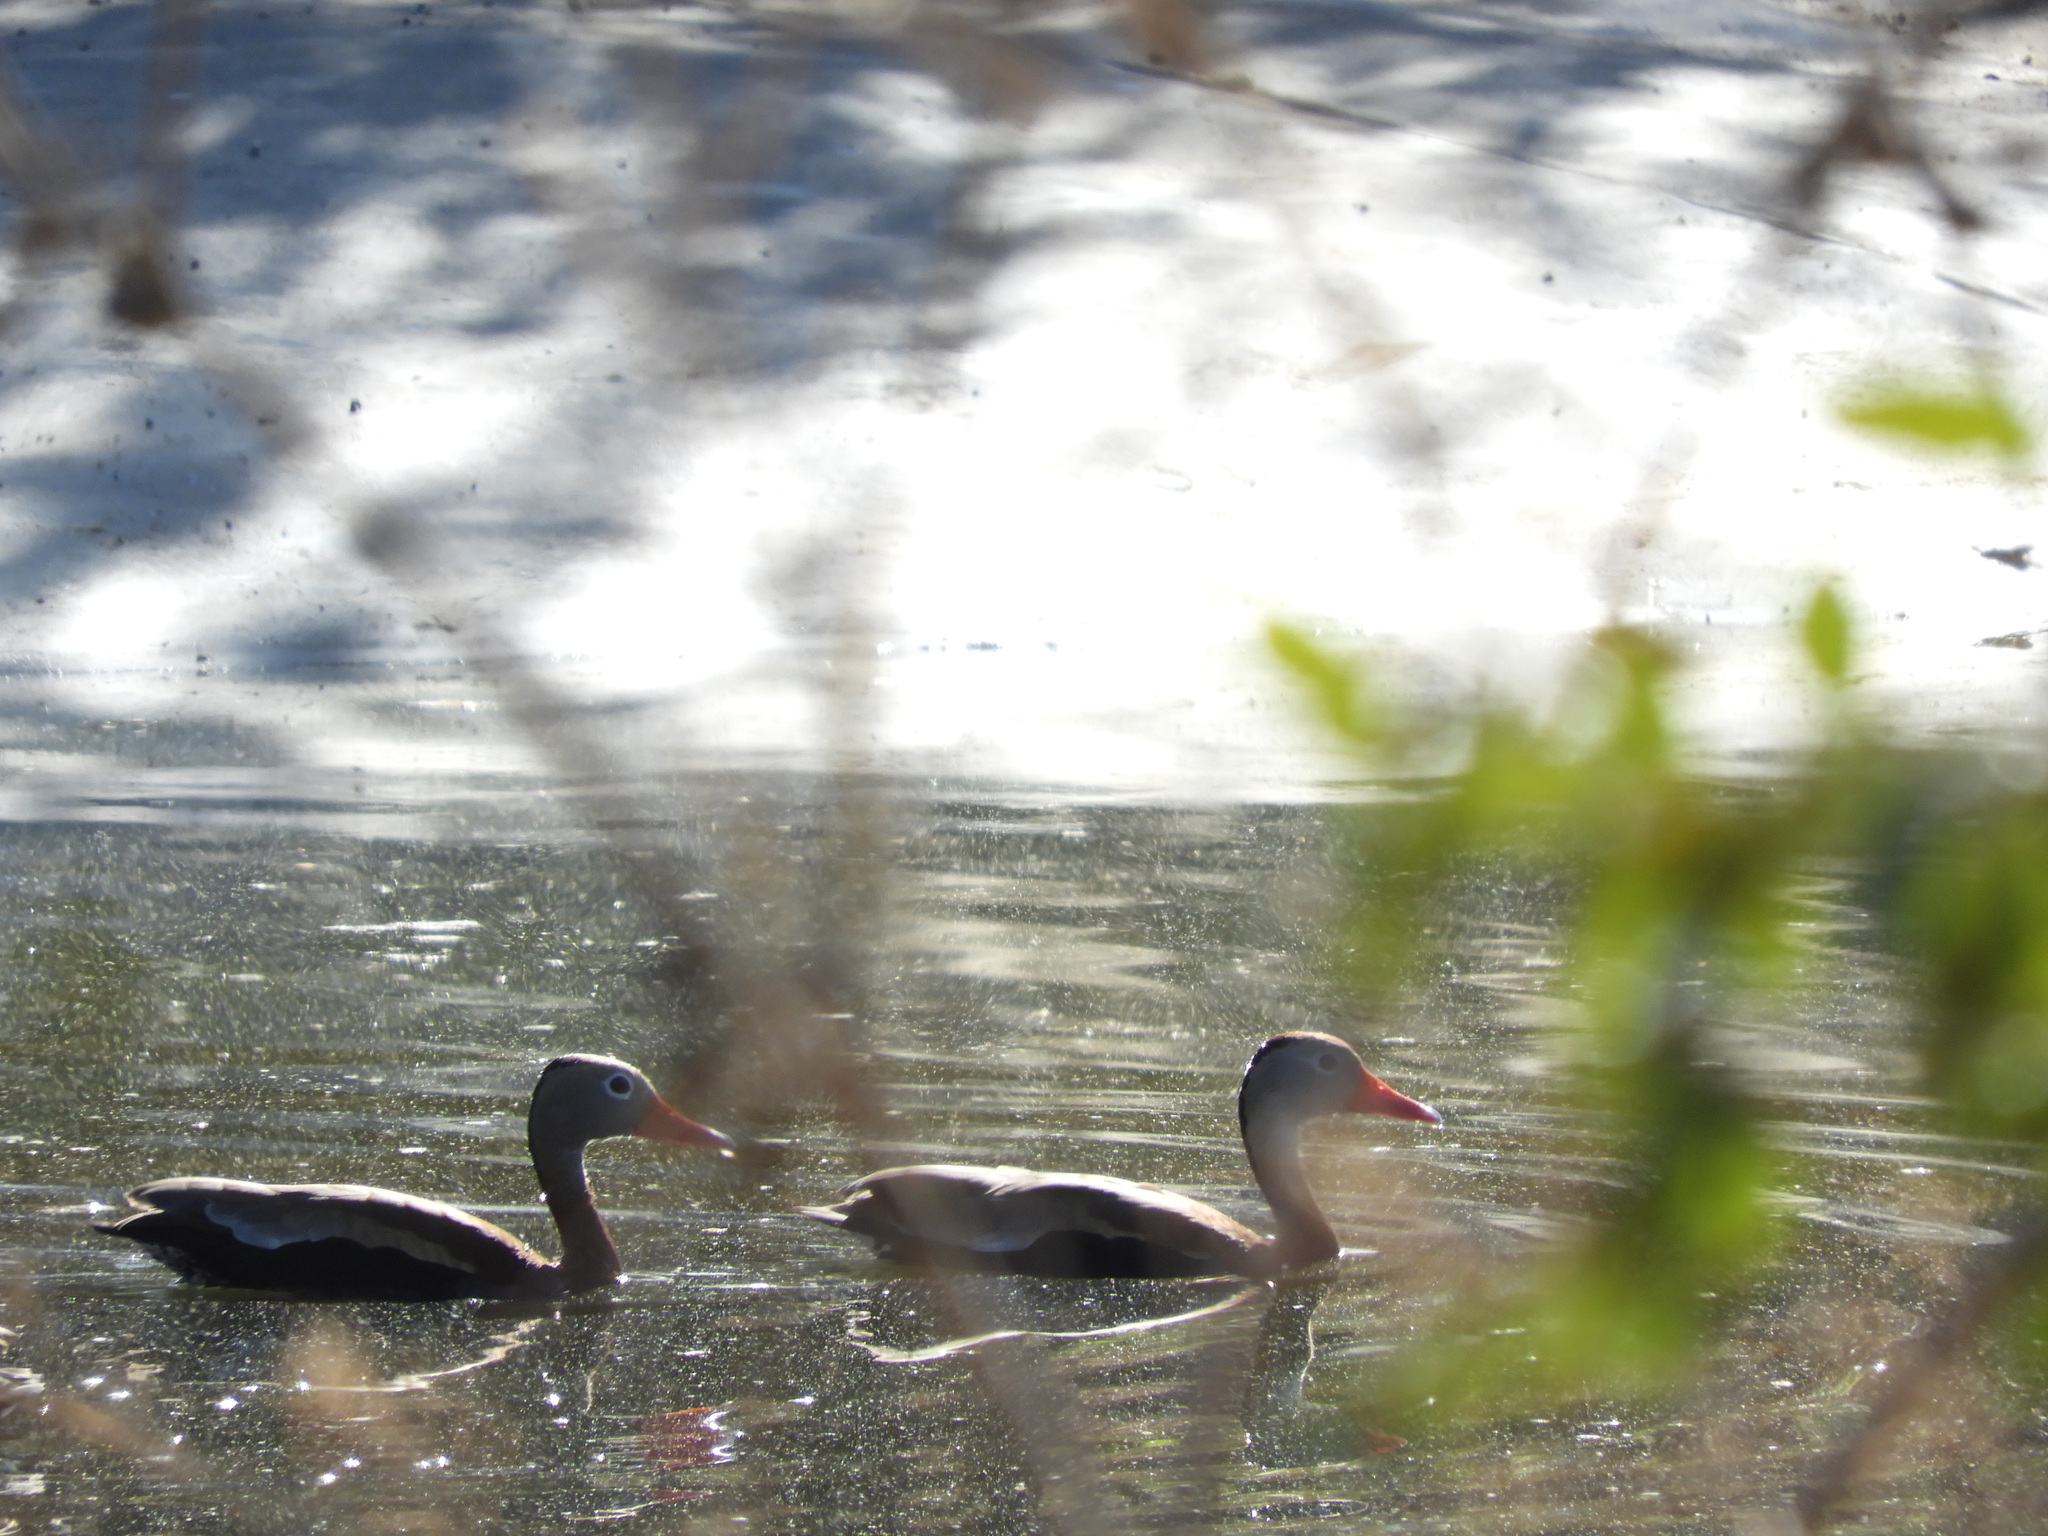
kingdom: Animalia
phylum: Chordata
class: Aves
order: Anseriformes
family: Anatidae
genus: Dendrocygna
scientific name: Dendrocygna autumnalis
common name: Black-bellied whistling duck
